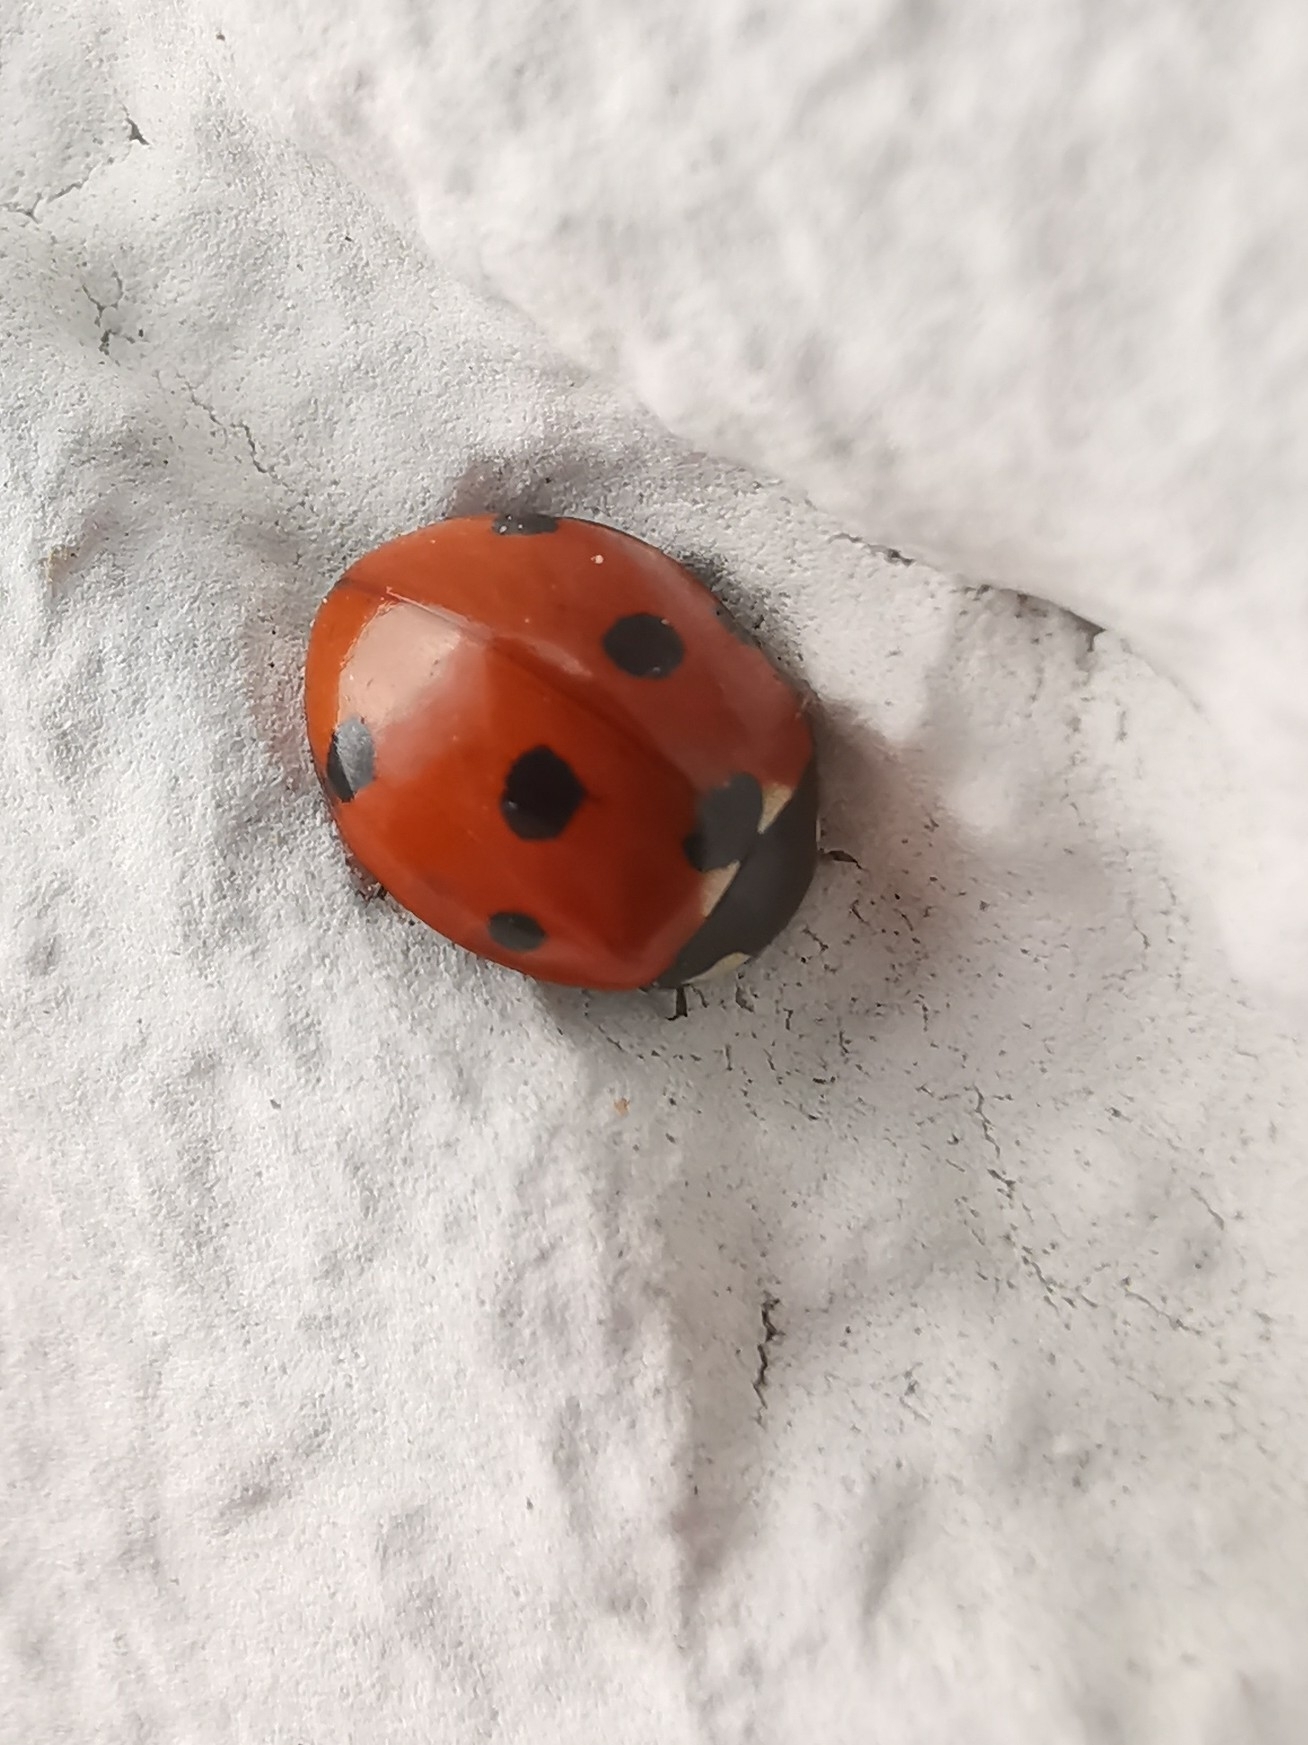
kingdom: Animalia
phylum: Arthropoda
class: Insecta
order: Coleoptera
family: Coccinellidae
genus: Coccinella
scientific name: Coccinella septempunctata
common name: Sevenspotted lady beetle
